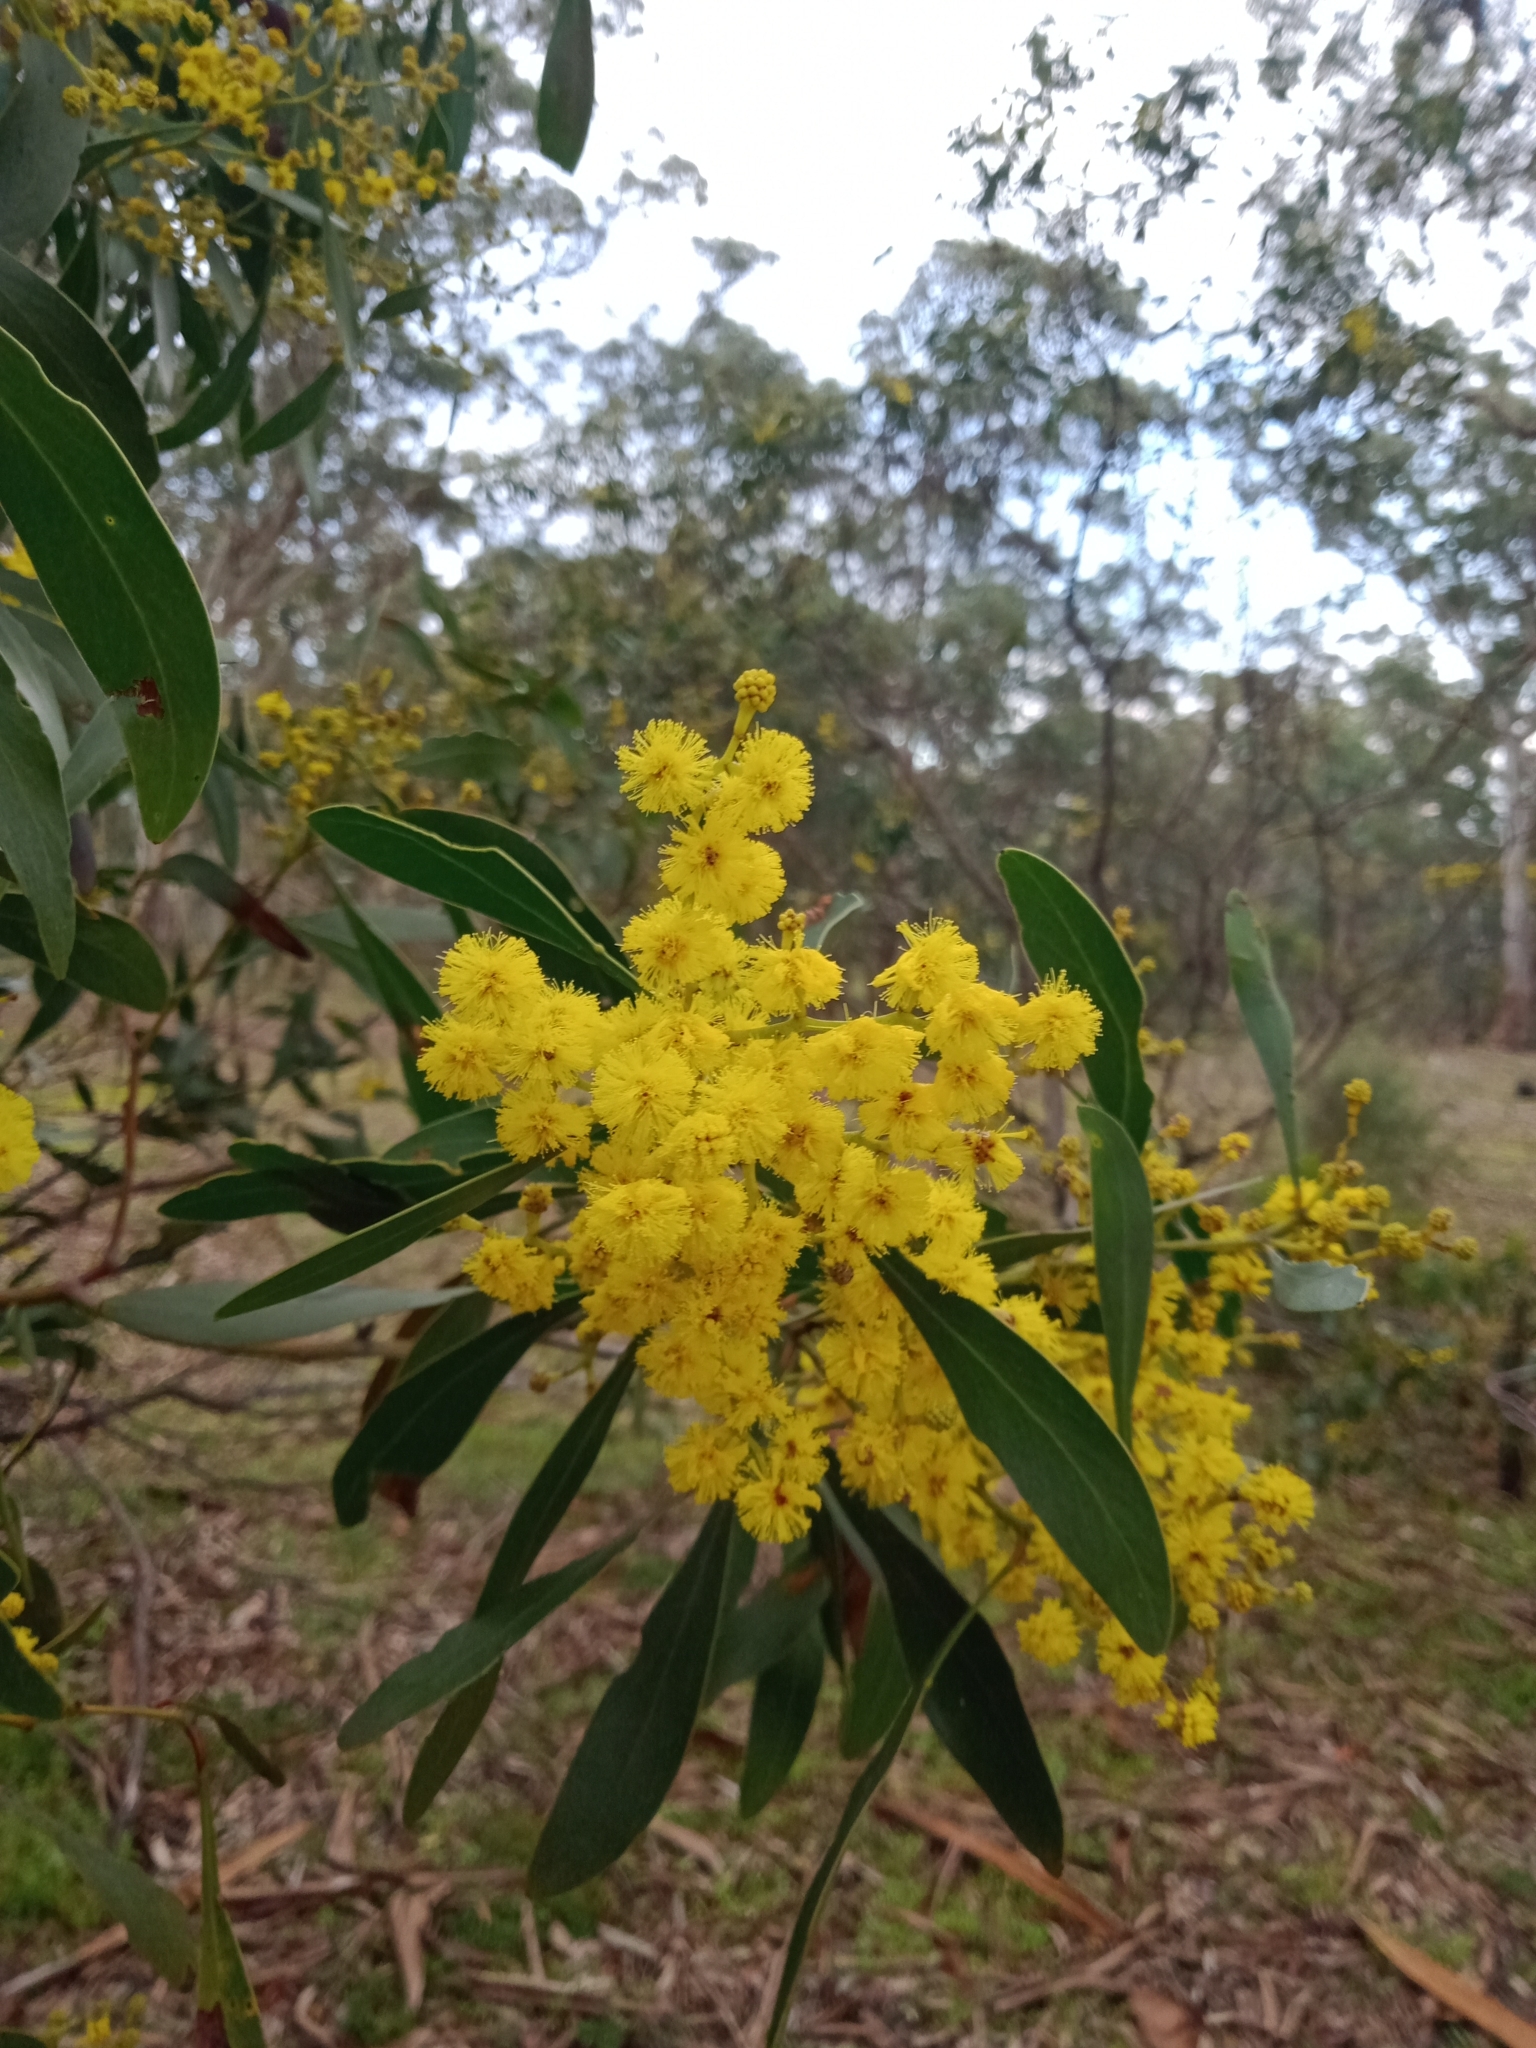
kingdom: Plantae
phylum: Tracheophyta
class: Magnoliopsida
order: Fabales
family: Fabaceae
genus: Acacia
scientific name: Acacia pycnantha
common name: Golden wattle
